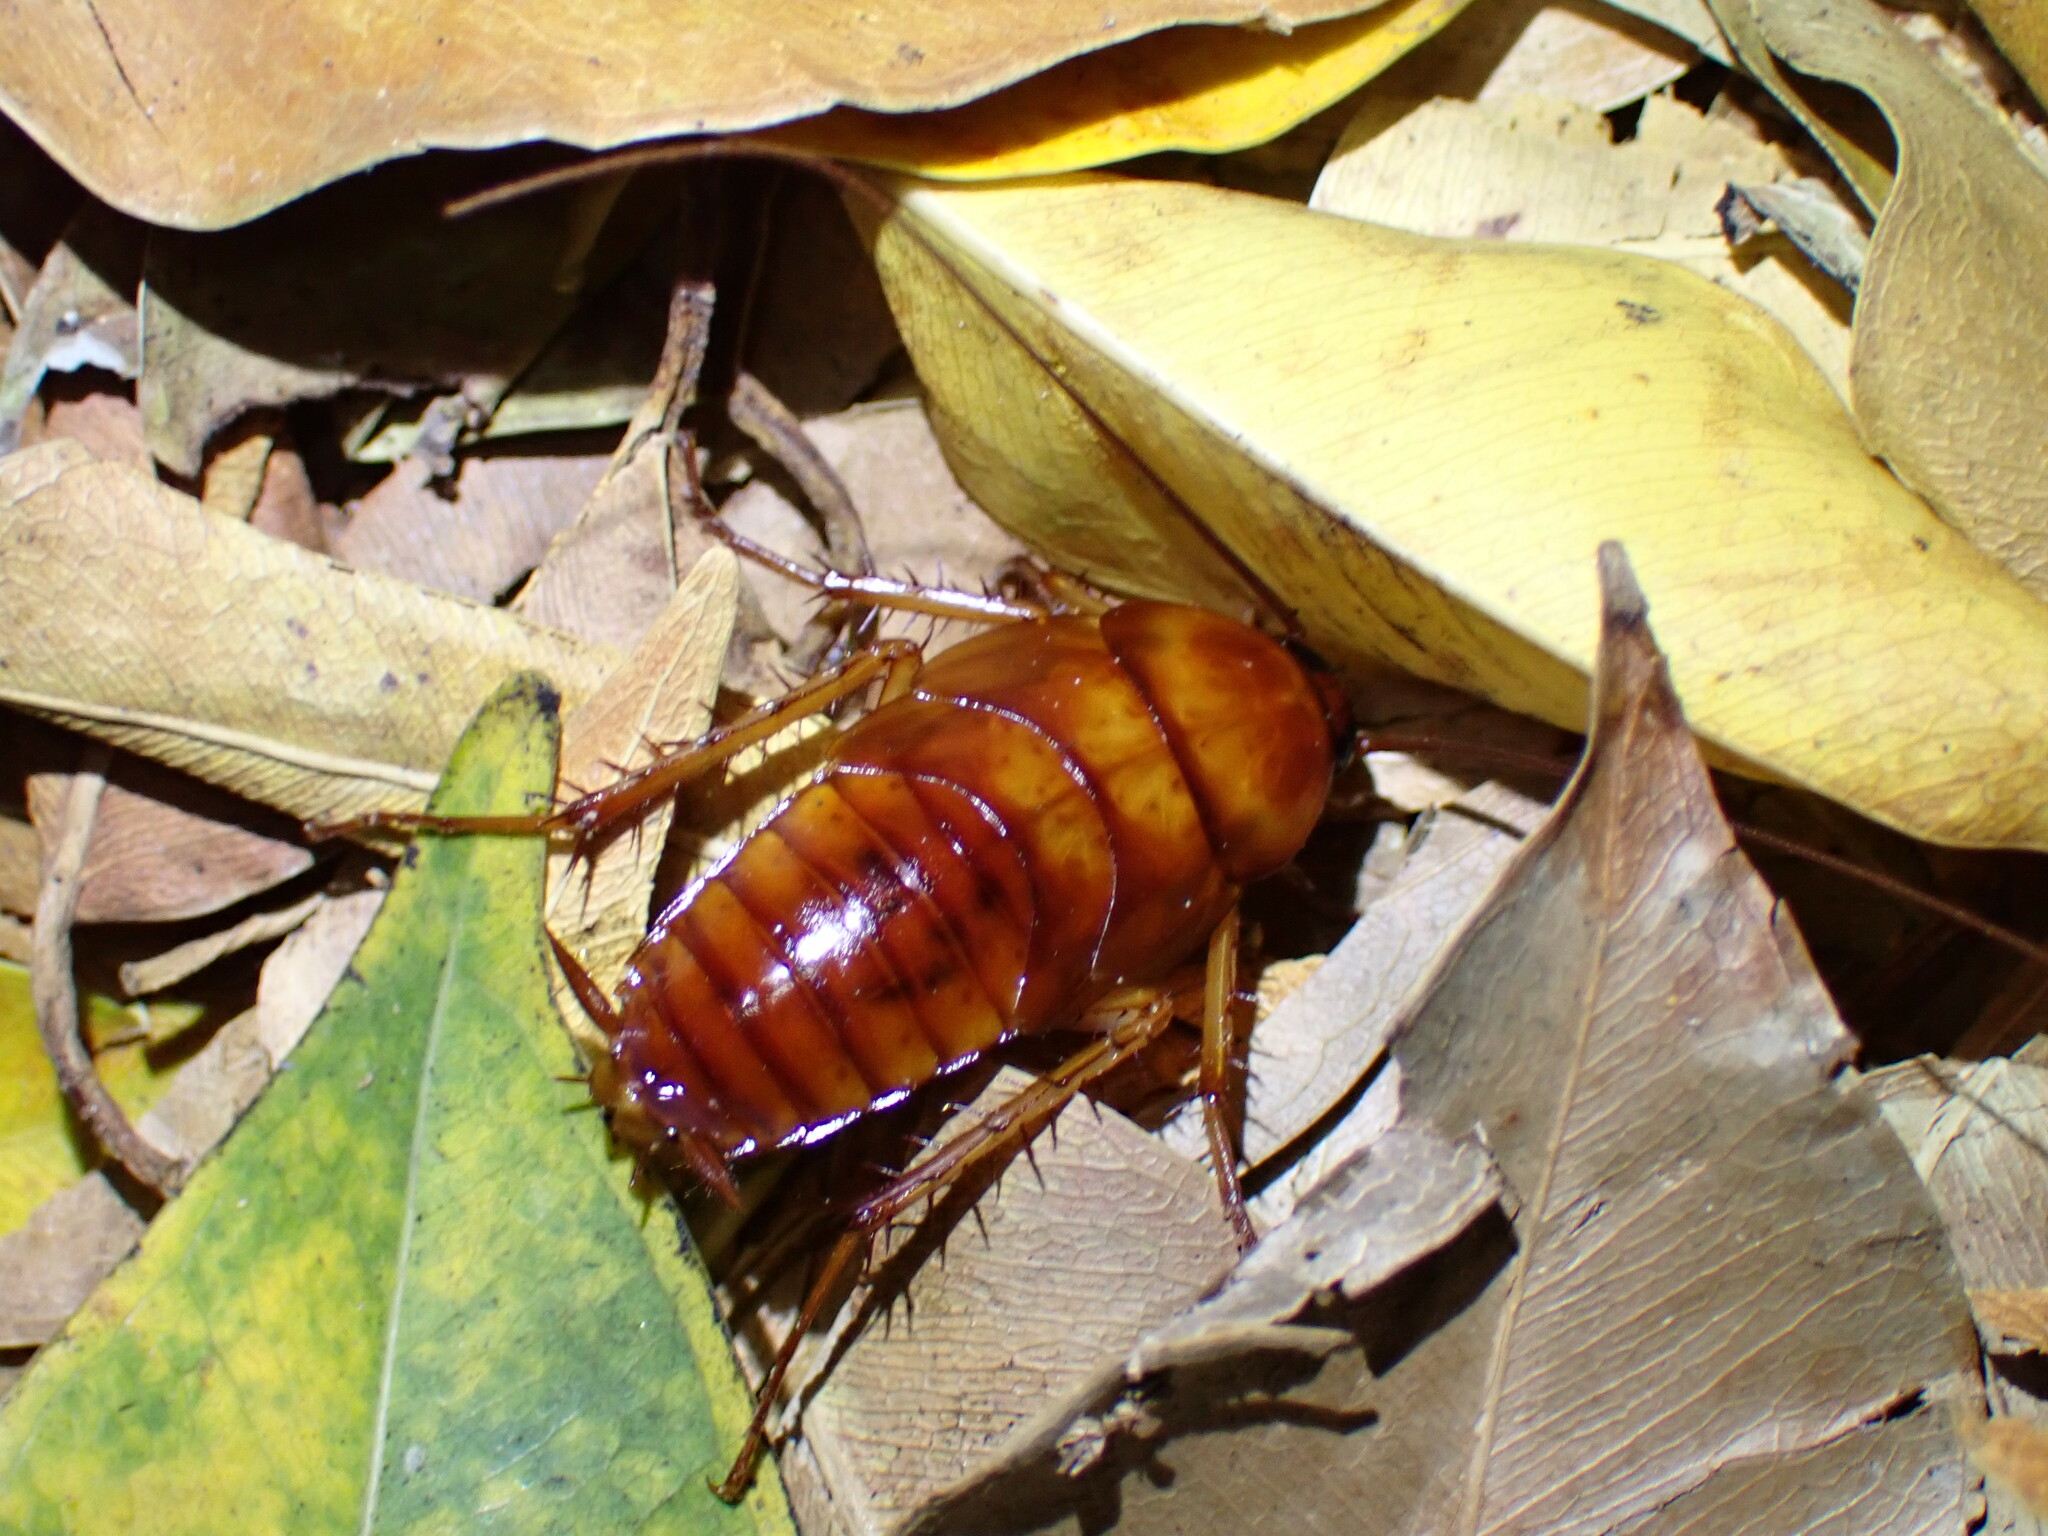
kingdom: Animalia
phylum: Arthropoda
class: Insecta
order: Blattodea
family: Blattidae
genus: Periplaneta
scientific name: Periplaneta americana
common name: American cockroach
